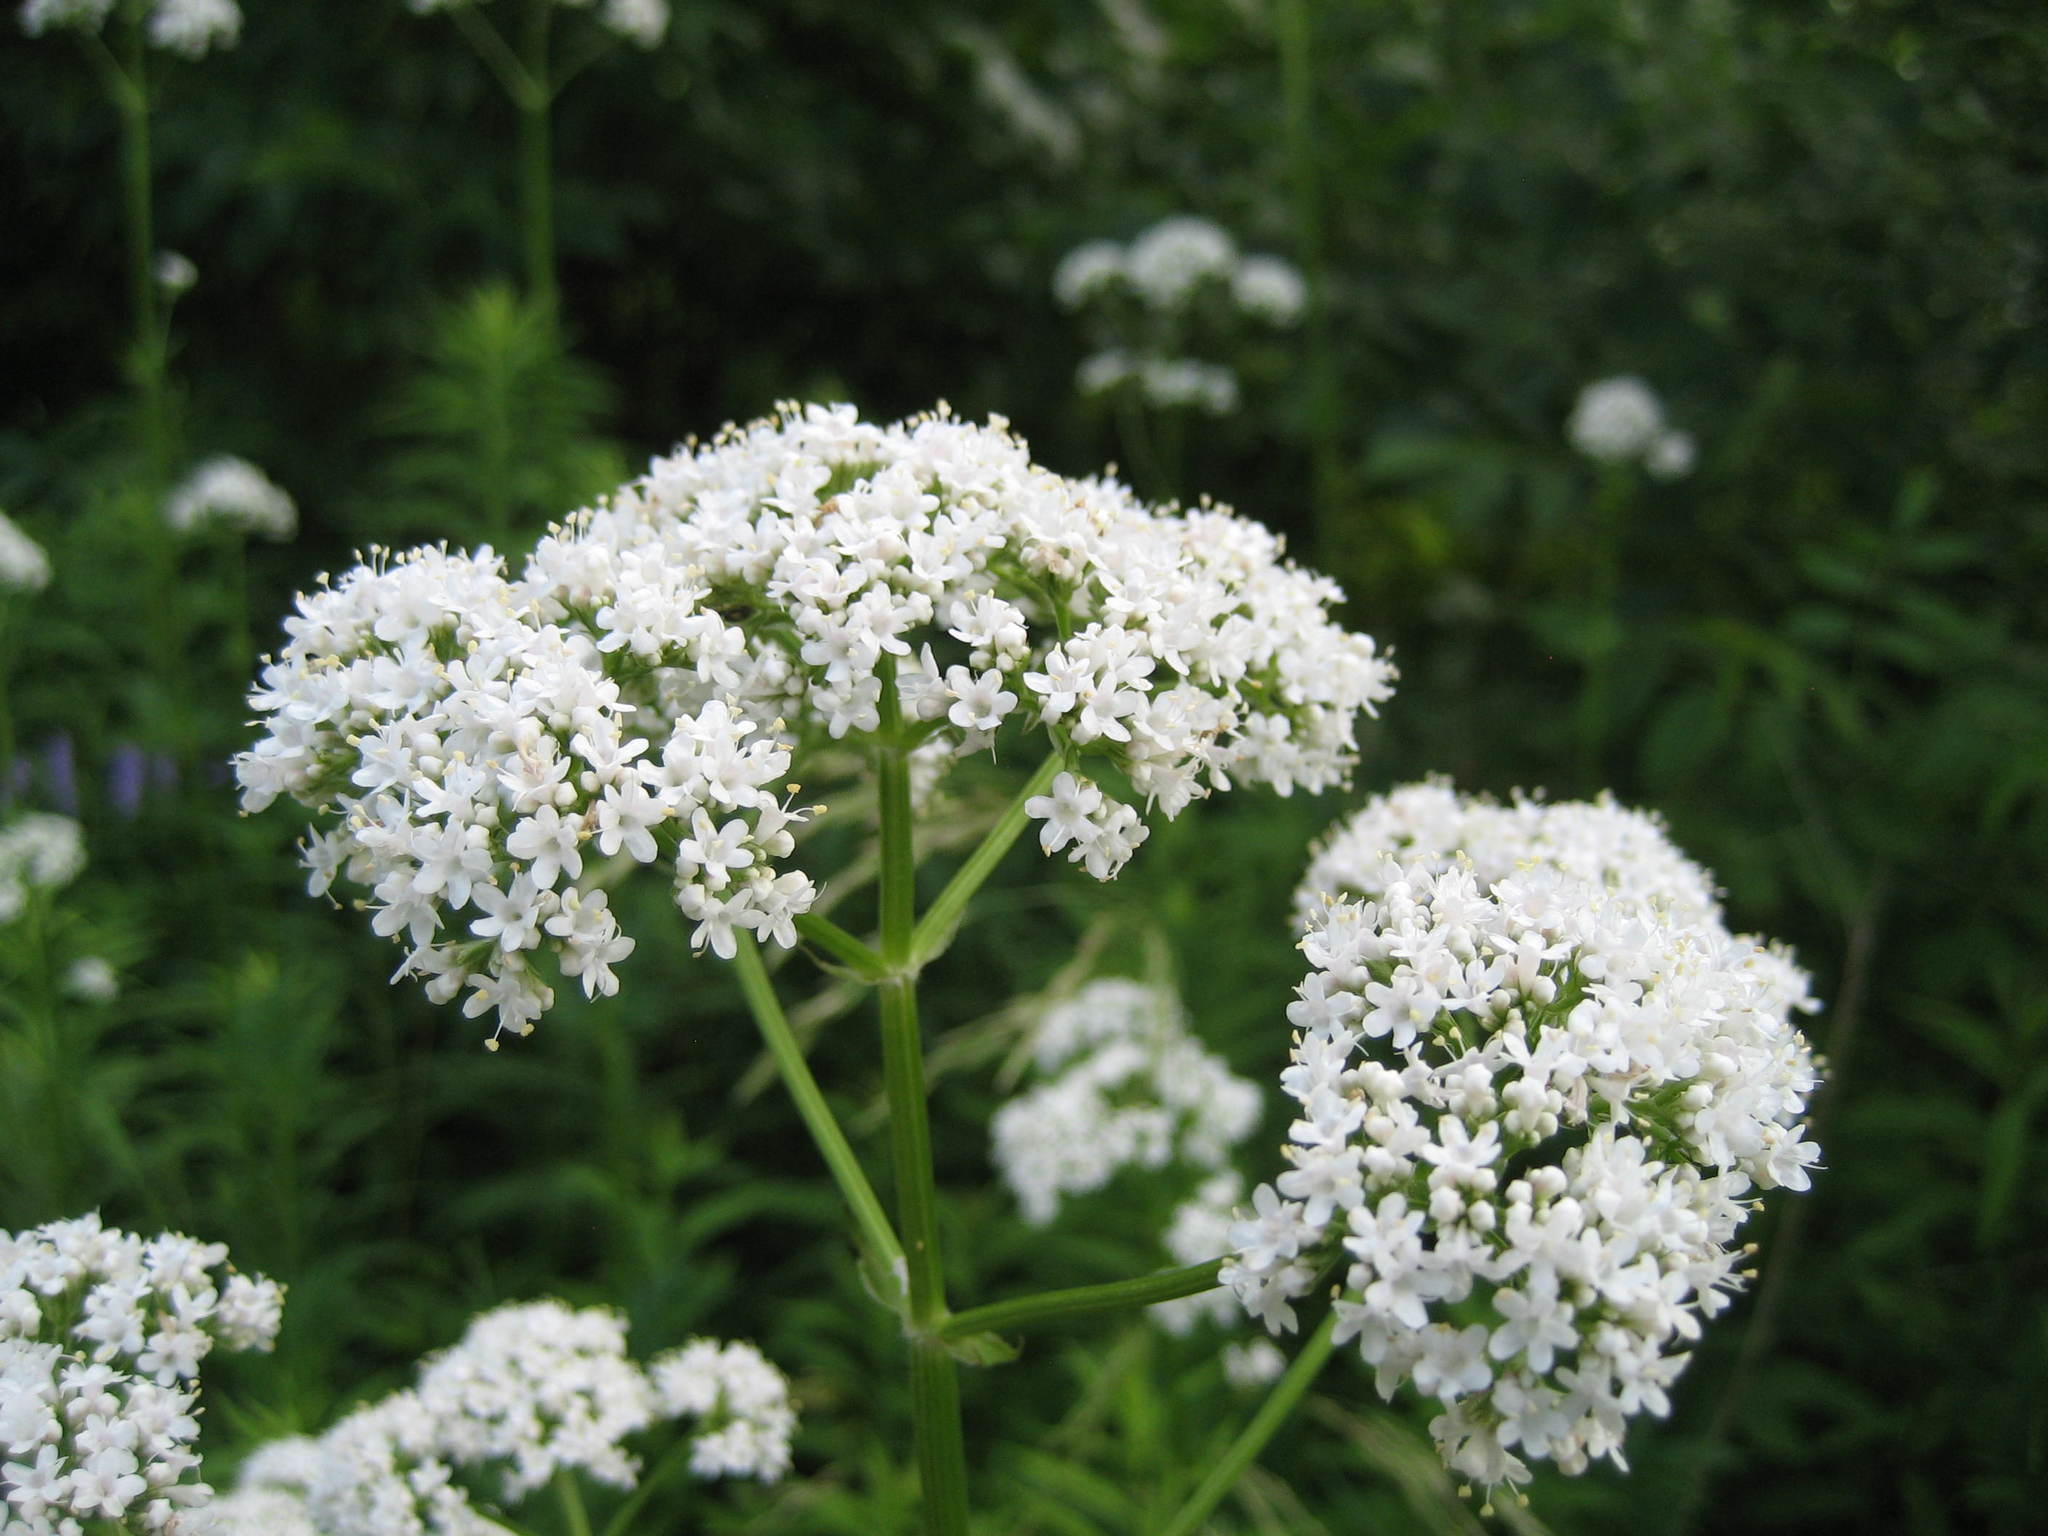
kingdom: Plantae
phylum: Tracheophyta
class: Magnoliopsida
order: Dipsacales
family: Caprifoliaceae
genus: Valeriana
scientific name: Valeriana officinalis
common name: Common valerian
